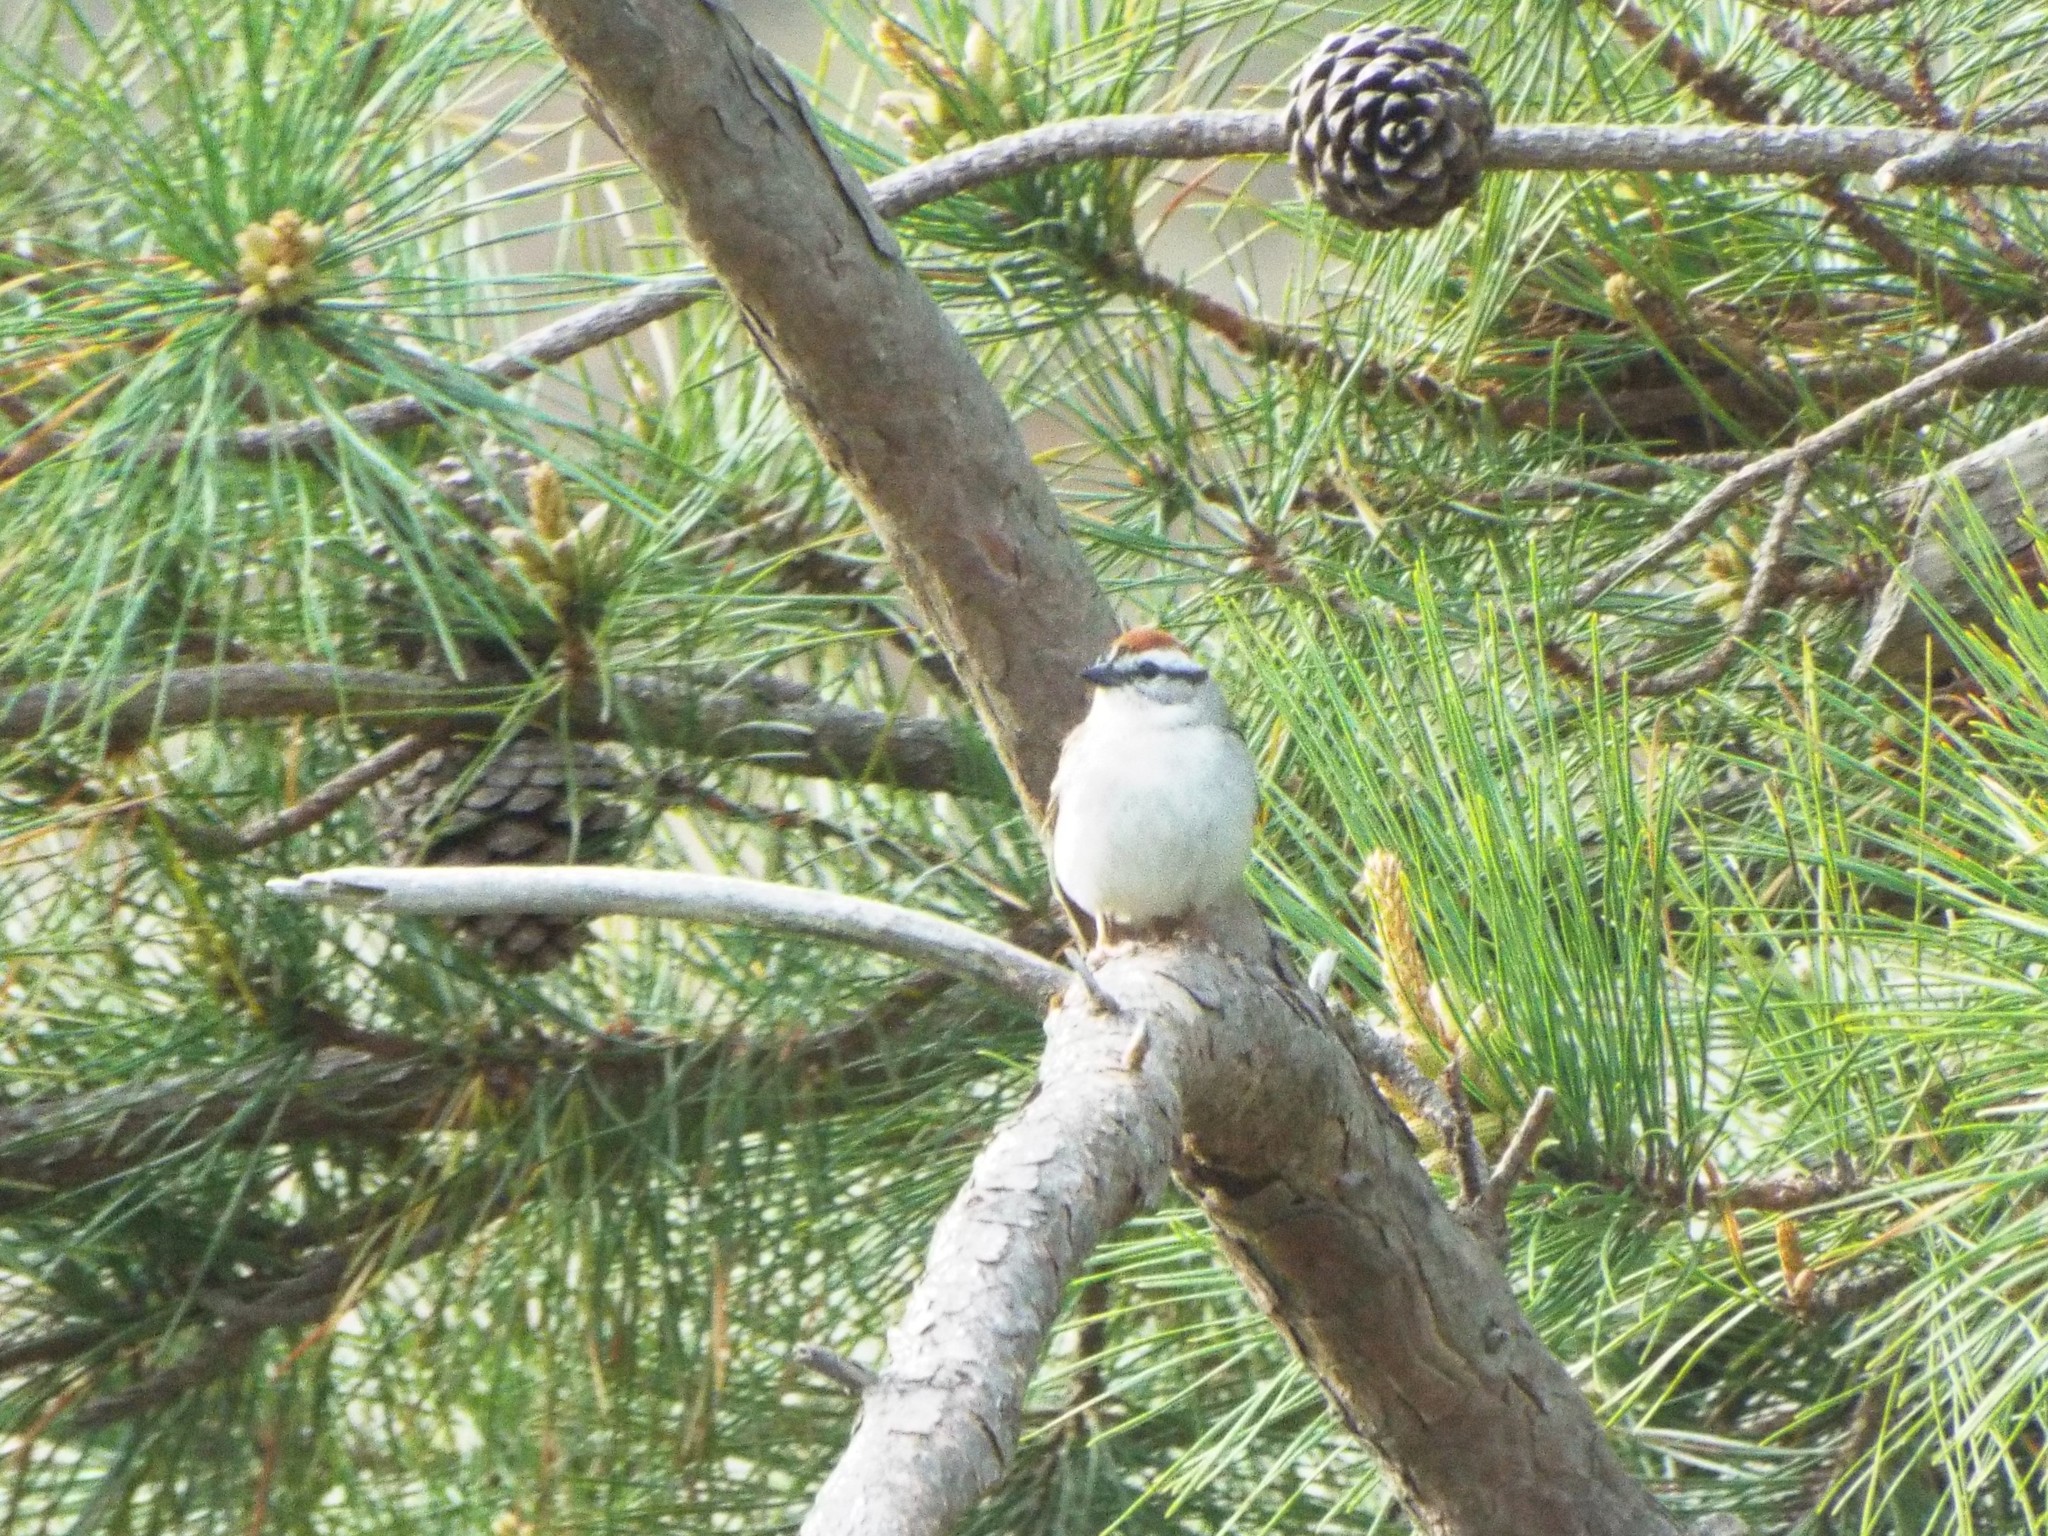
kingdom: Animalia
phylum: Chordata
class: Aves
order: Passeriformes
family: Passerellidae
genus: Spizella
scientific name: Spizella passerina
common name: Chipping sparrow
